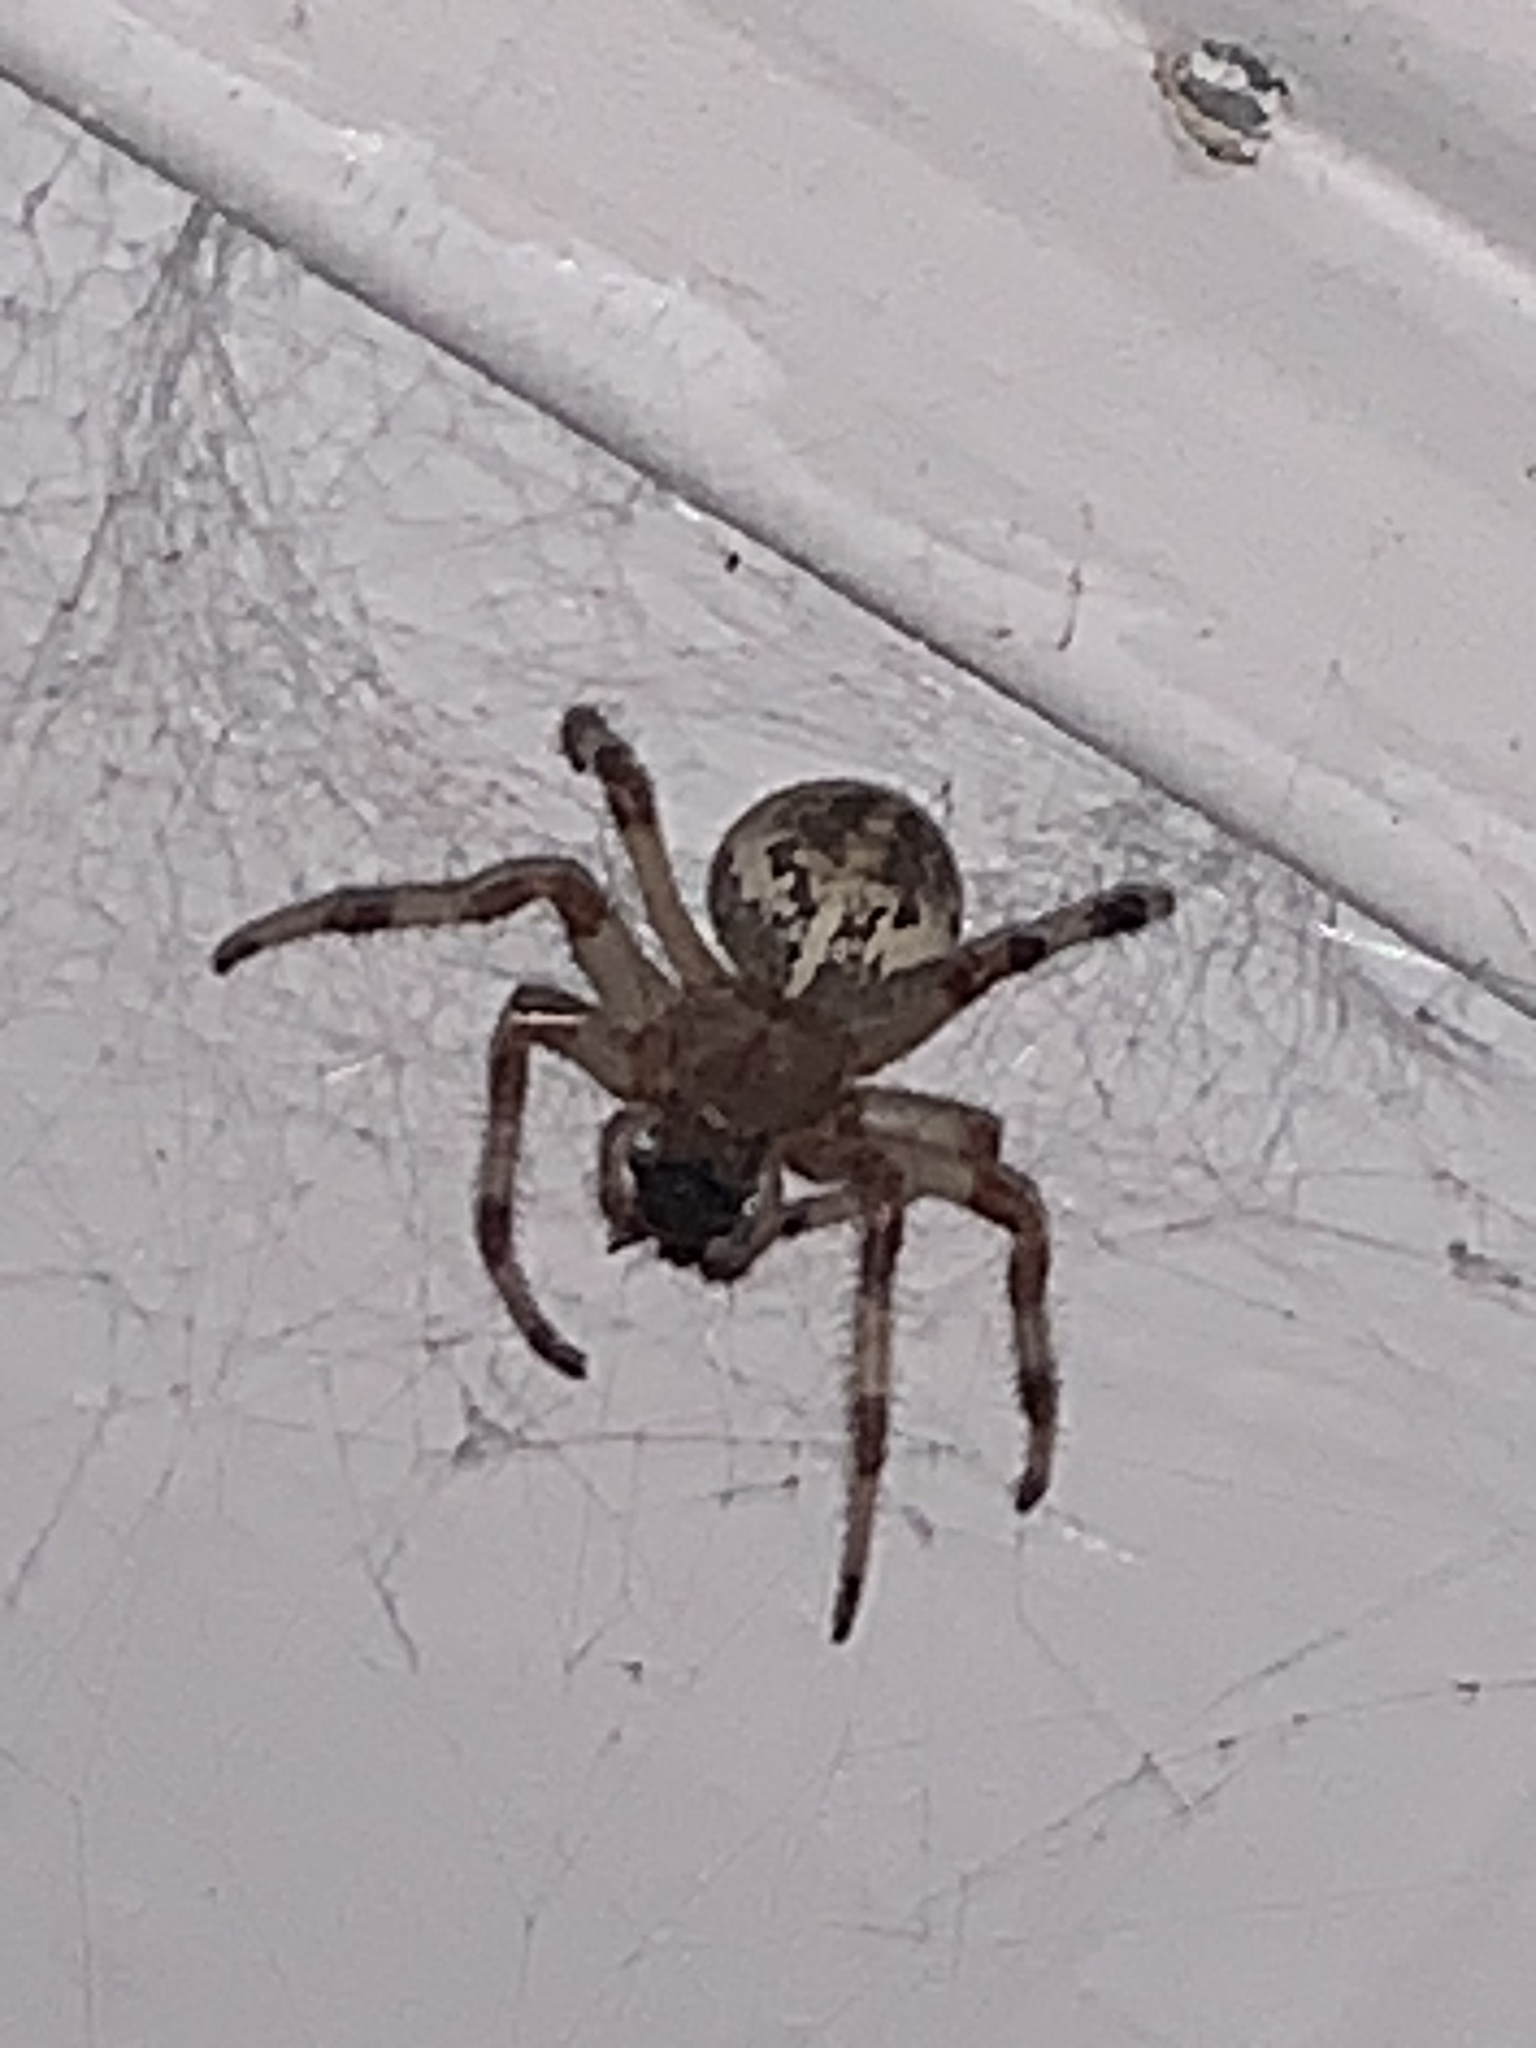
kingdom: Animalia
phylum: Arthropoda
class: Arachnida
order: Araneae
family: Araneidae
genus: Araneus
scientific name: Araneus marmoreus
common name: Marbled orbweaver
